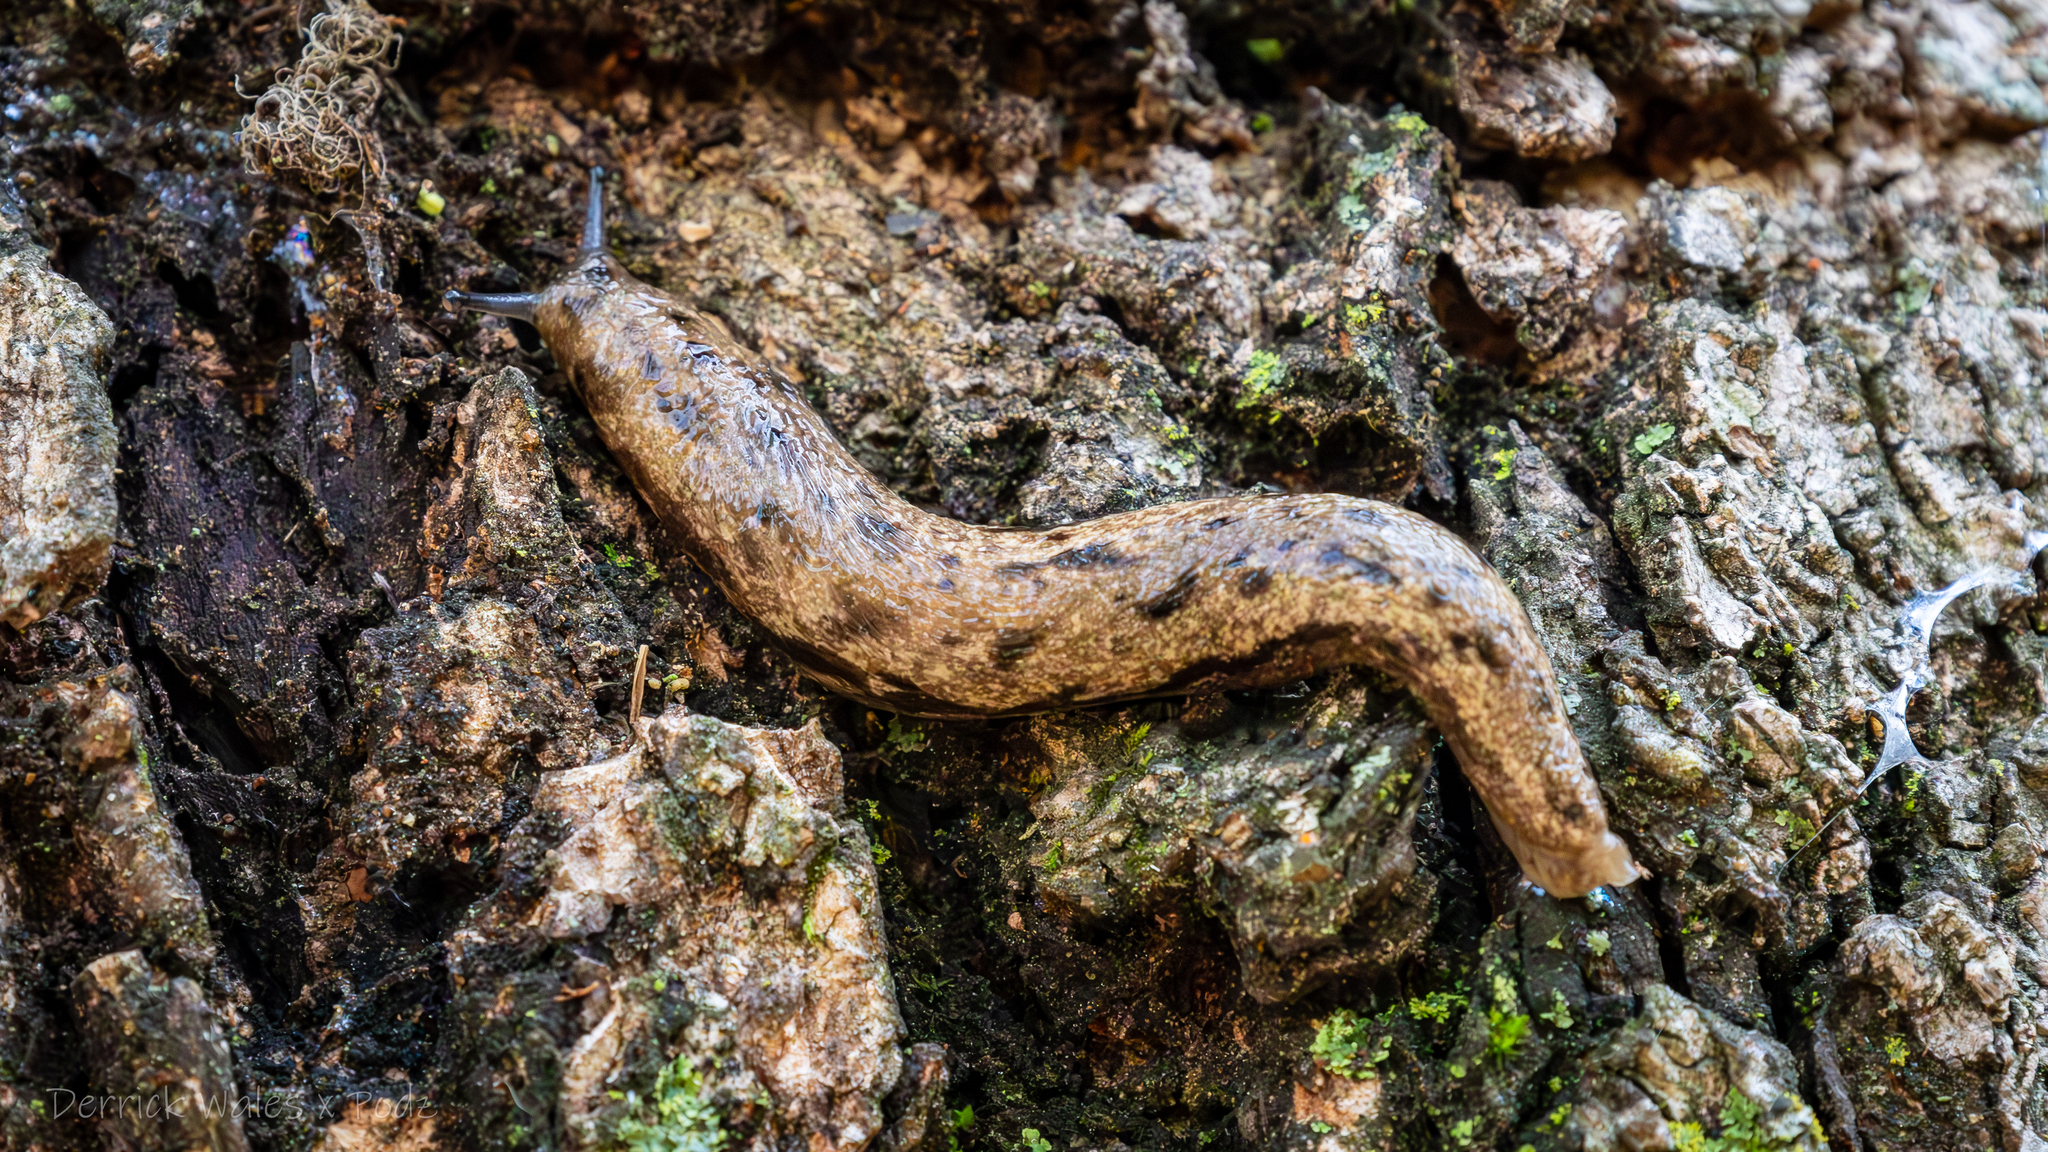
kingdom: Animalia
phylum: Mollusca
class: Gastropoda
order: Stylommatophora
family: Philomycidae
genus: Megapallifera
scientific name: Megapallifera mutabilis
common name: Changeable mantleslug
